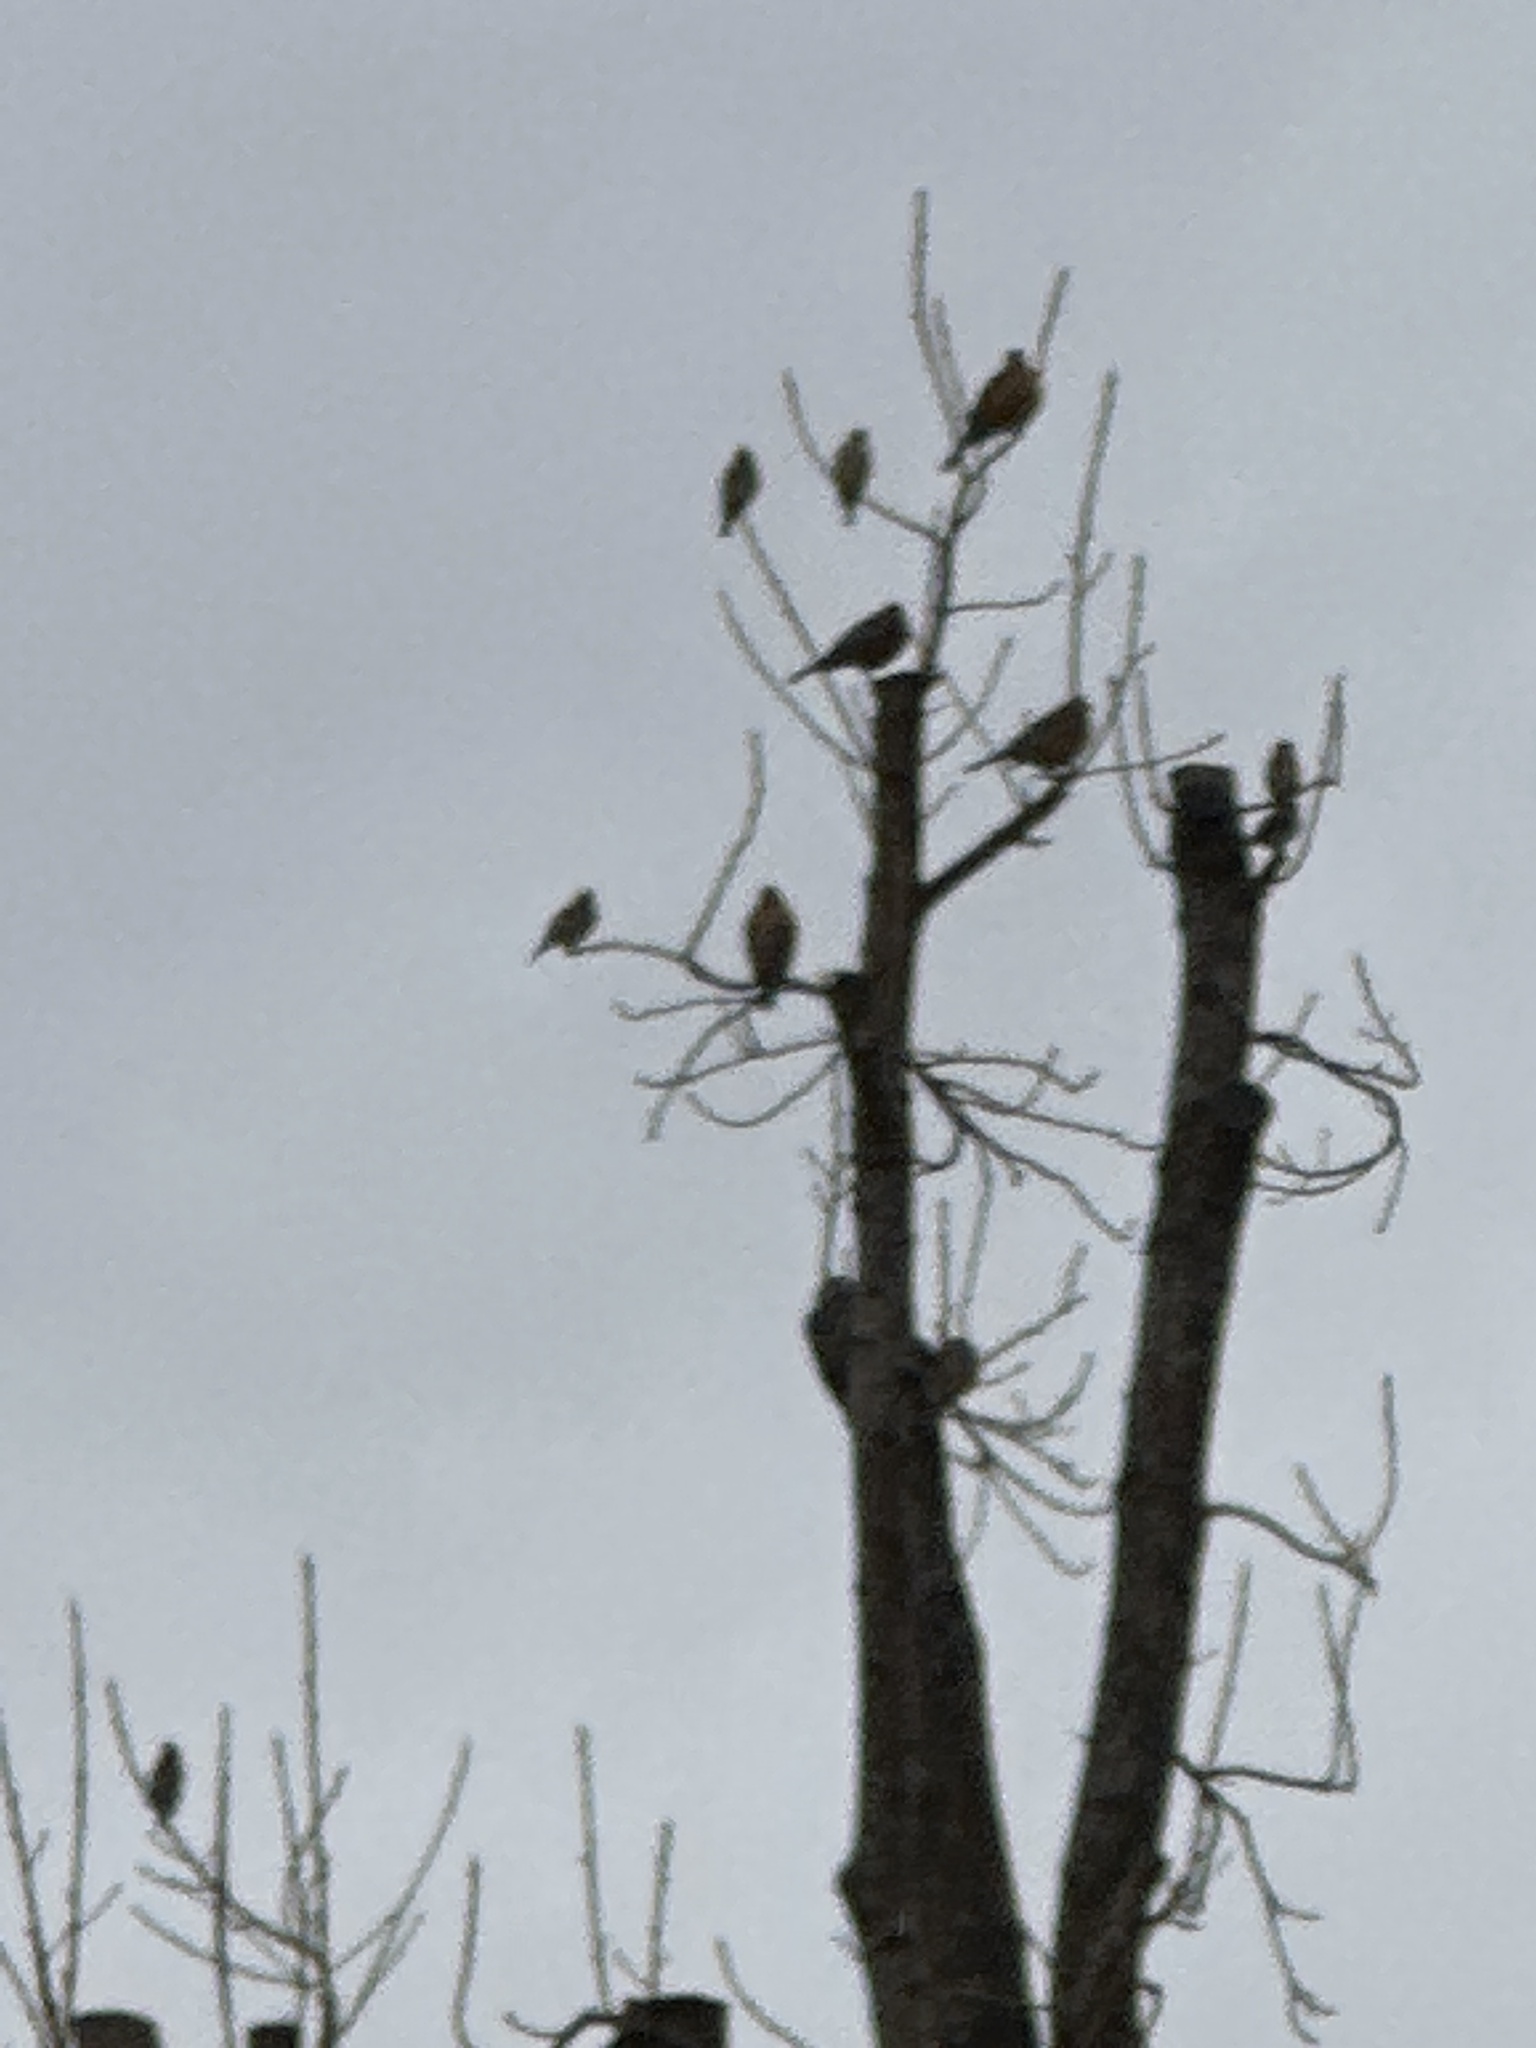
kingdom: Animalia
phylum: Chordata
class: Aves
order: Passeriformes
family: Bombycillidae
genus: Bombycilla
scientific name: Bombycilla cedrorum
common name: Cedar waxwing
